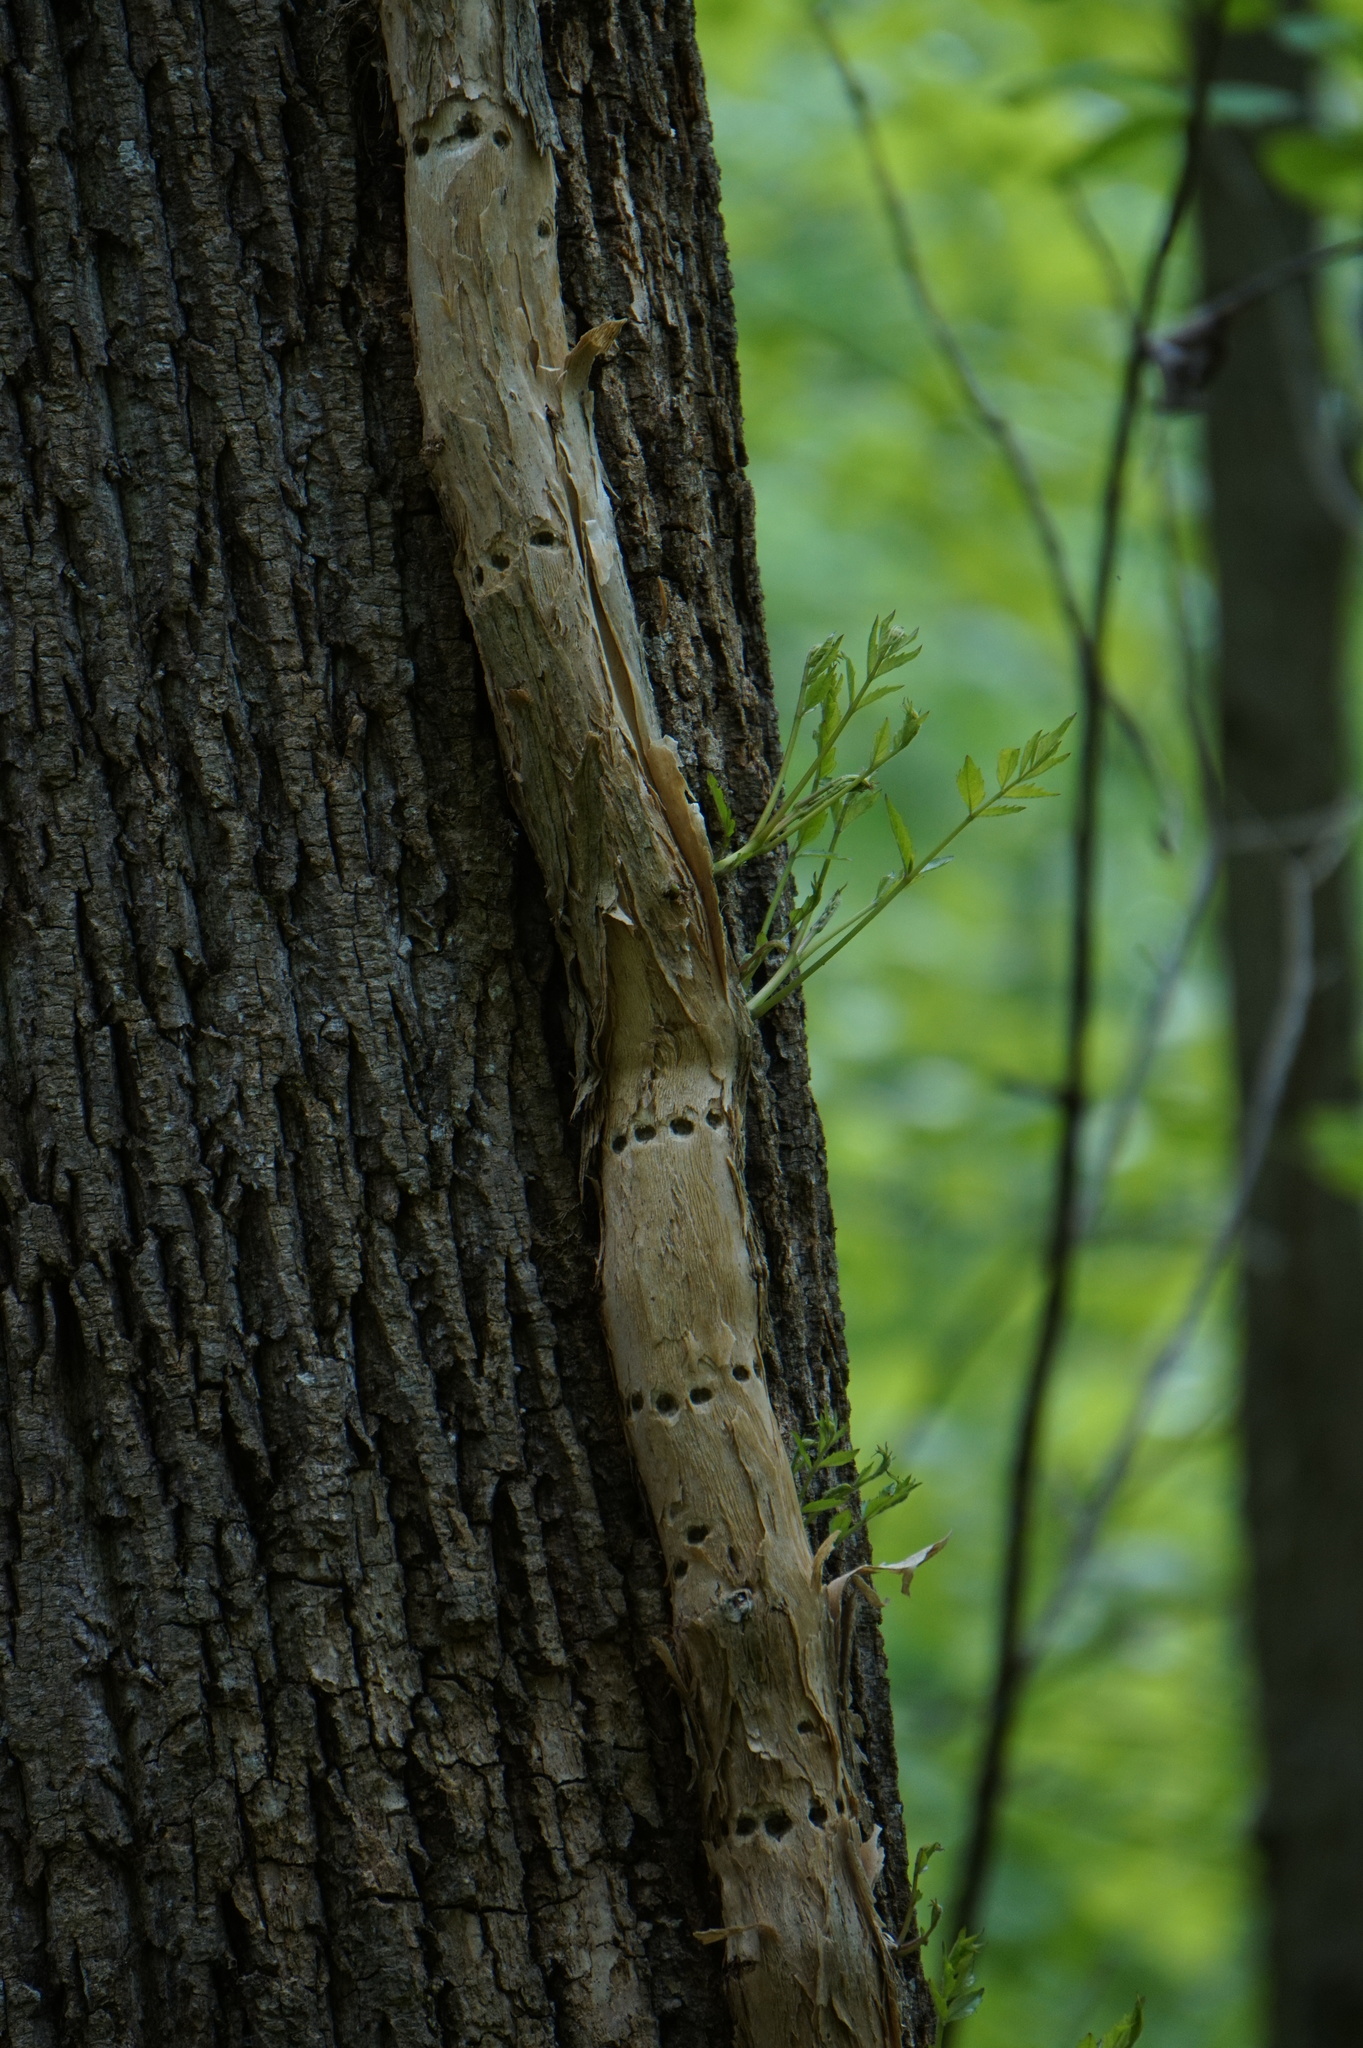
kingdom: Plantae
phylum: Tracheophyta
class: Magnoliopsida
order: Lamiales
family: Bignoniaceae
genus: Campsis
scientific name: Campsis radicans
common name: Trumpet-creeper
